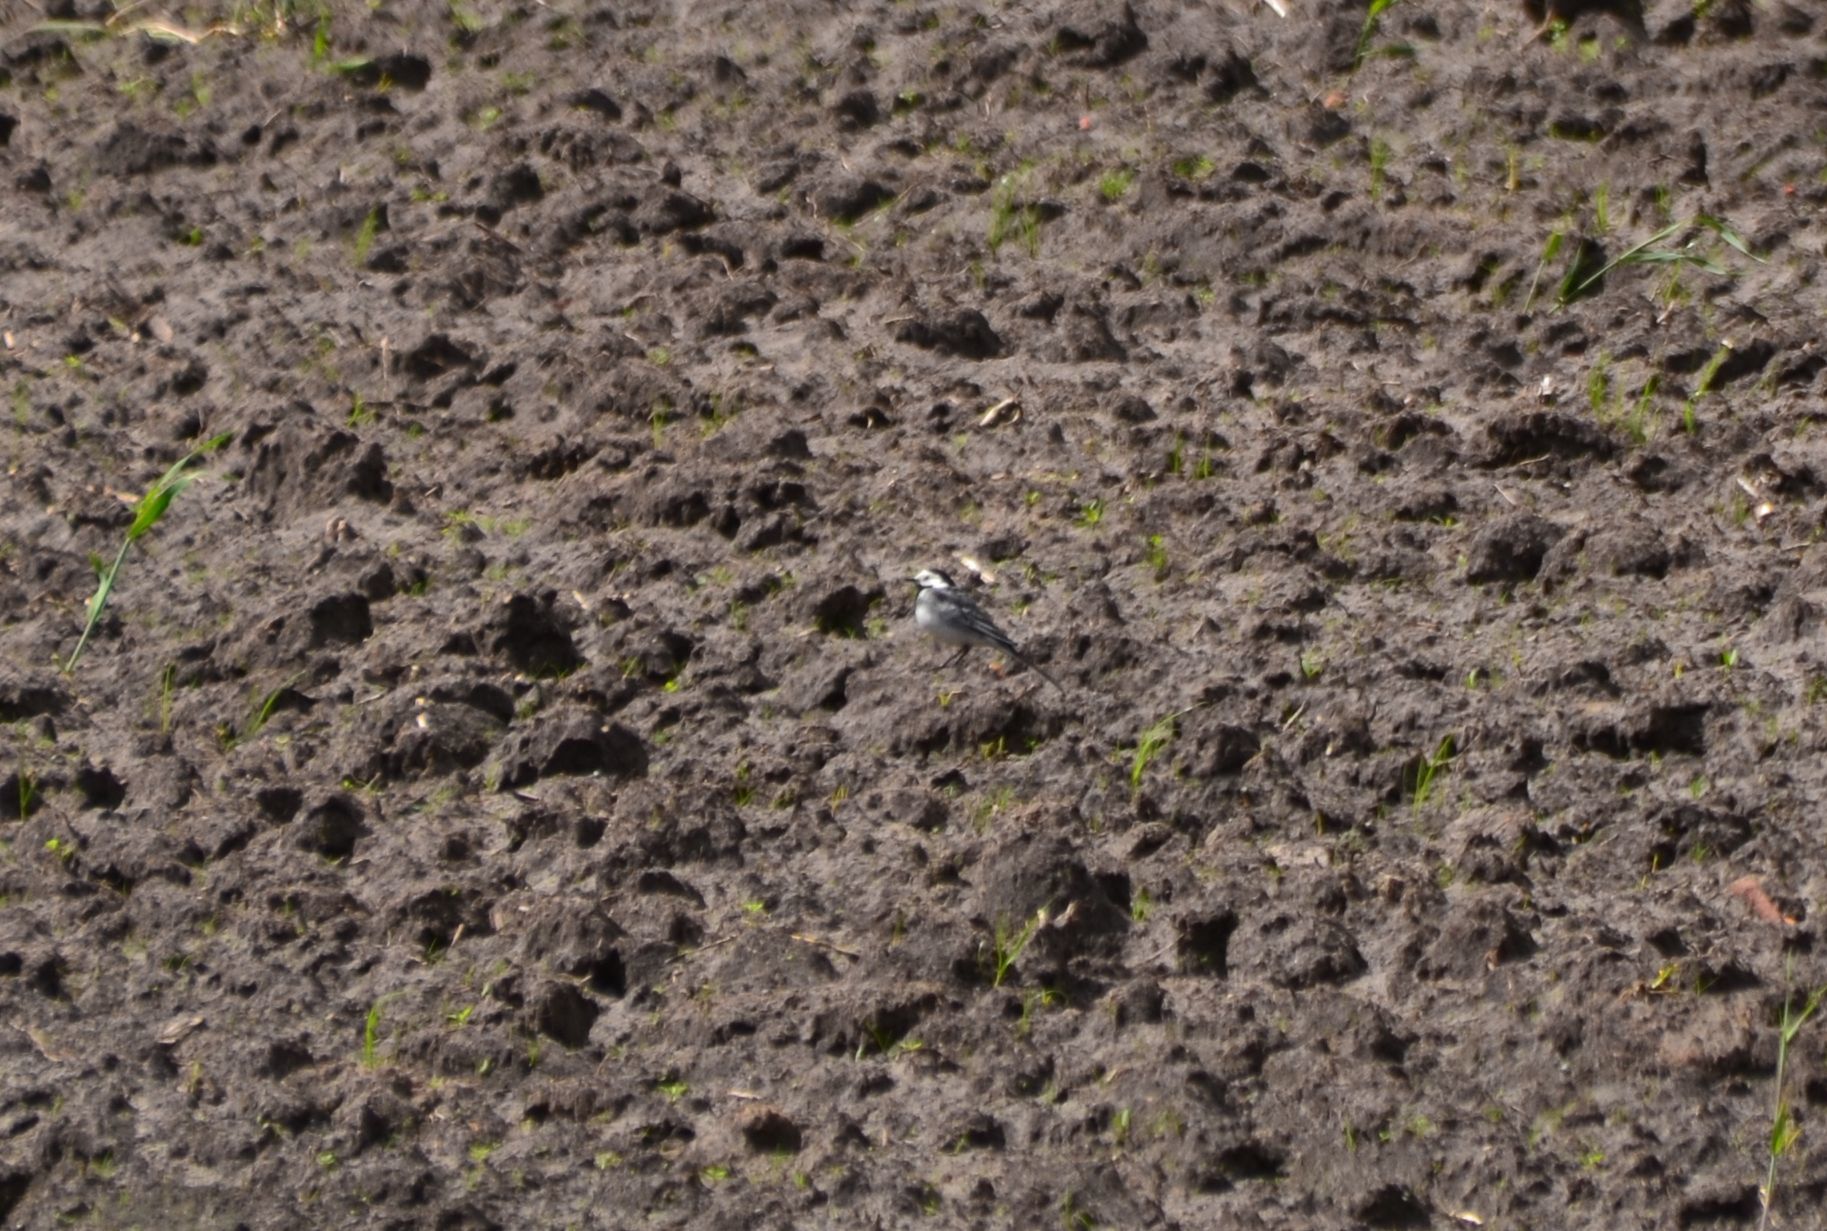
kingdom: Animalia
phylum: Chordata
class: Aves
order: Passeriformes
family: Motacillidae
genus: Motacilla
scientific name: Motacilla alba
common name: White wagtail
